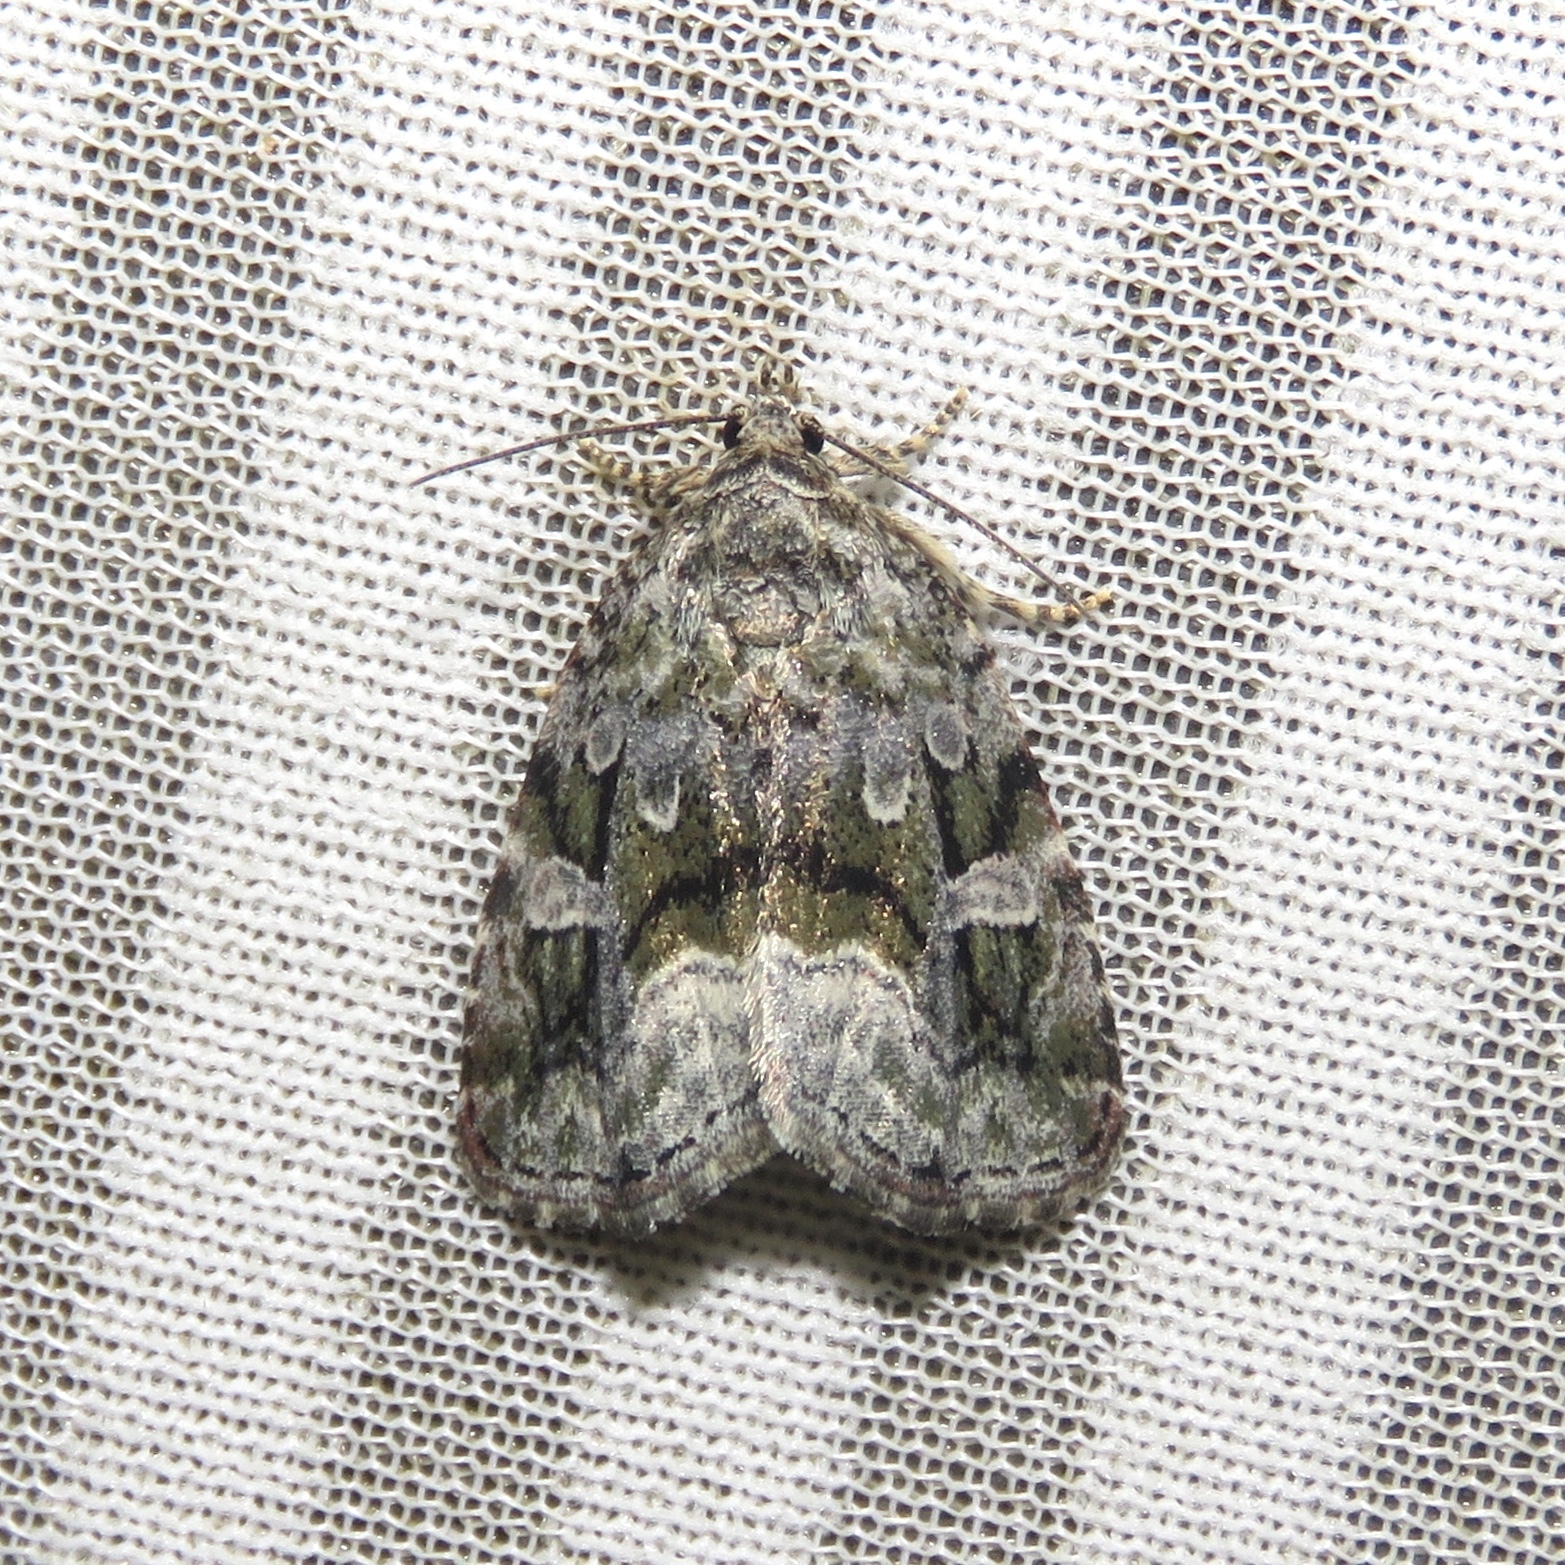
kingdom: Animalia
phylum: Arthropoda
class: Insecta
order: Lepidoptera
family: Noctuidae
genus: Protodeltote
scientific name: Protodeltote muscosula
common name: Large mossy glyph
